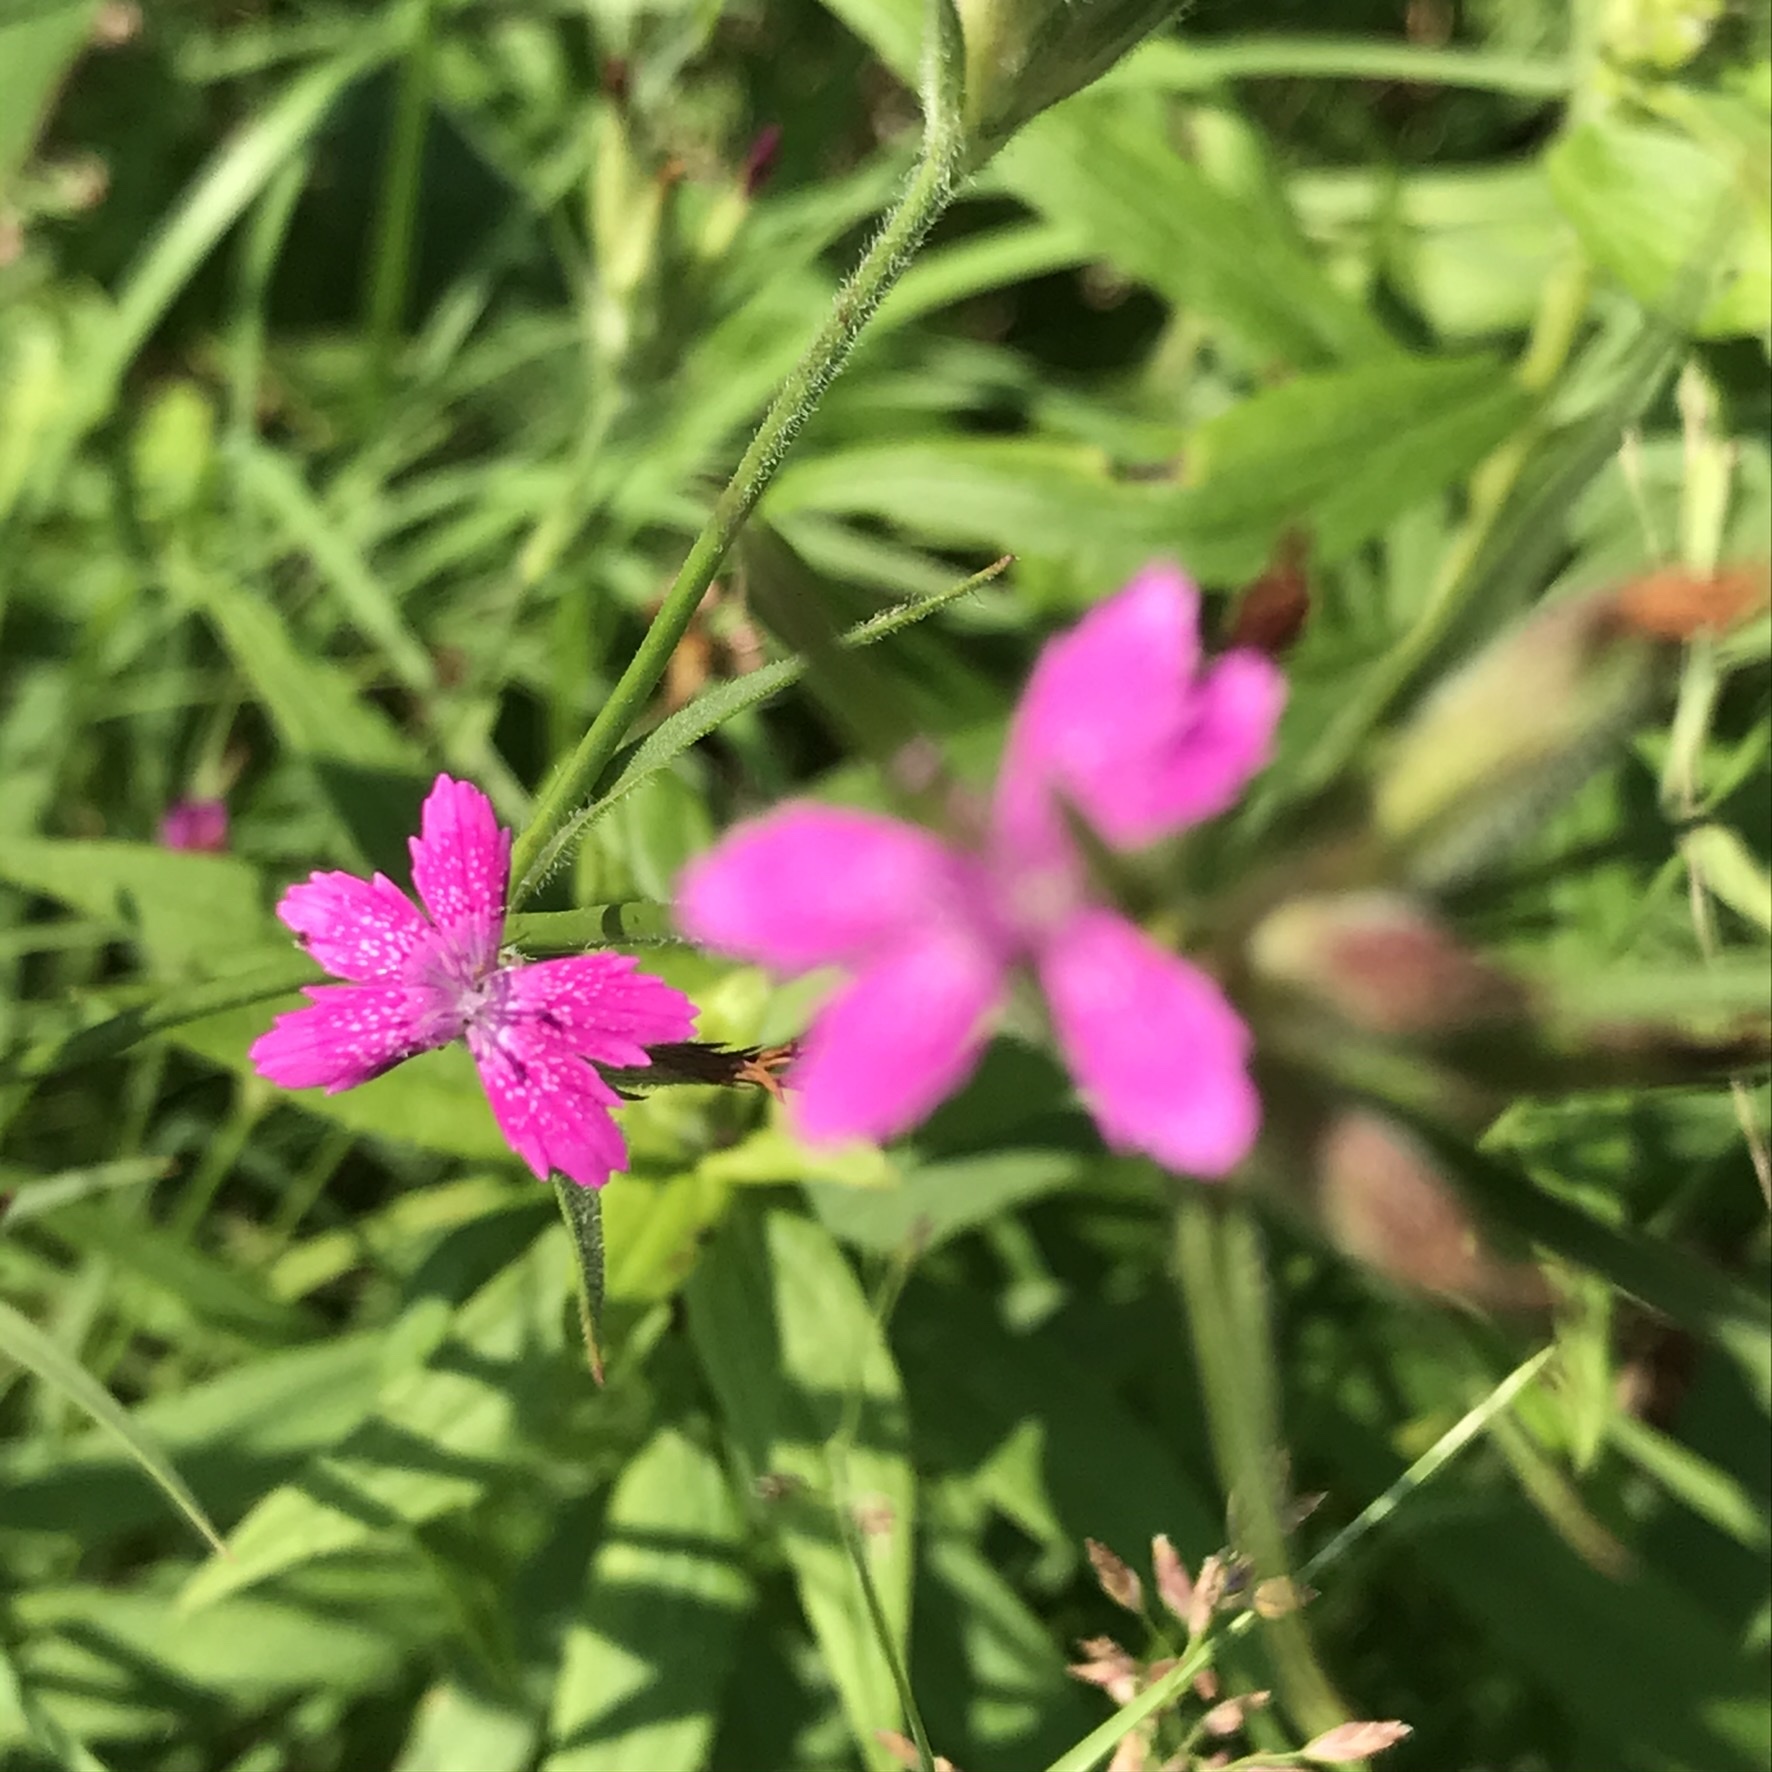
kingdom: Plantae
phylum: Tracheophyta
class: Magnoliopsida
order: Caryophyllales
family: Caryophyllaceae
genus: Dianthus
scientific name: Dianthus armeria
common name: Deptford pink
